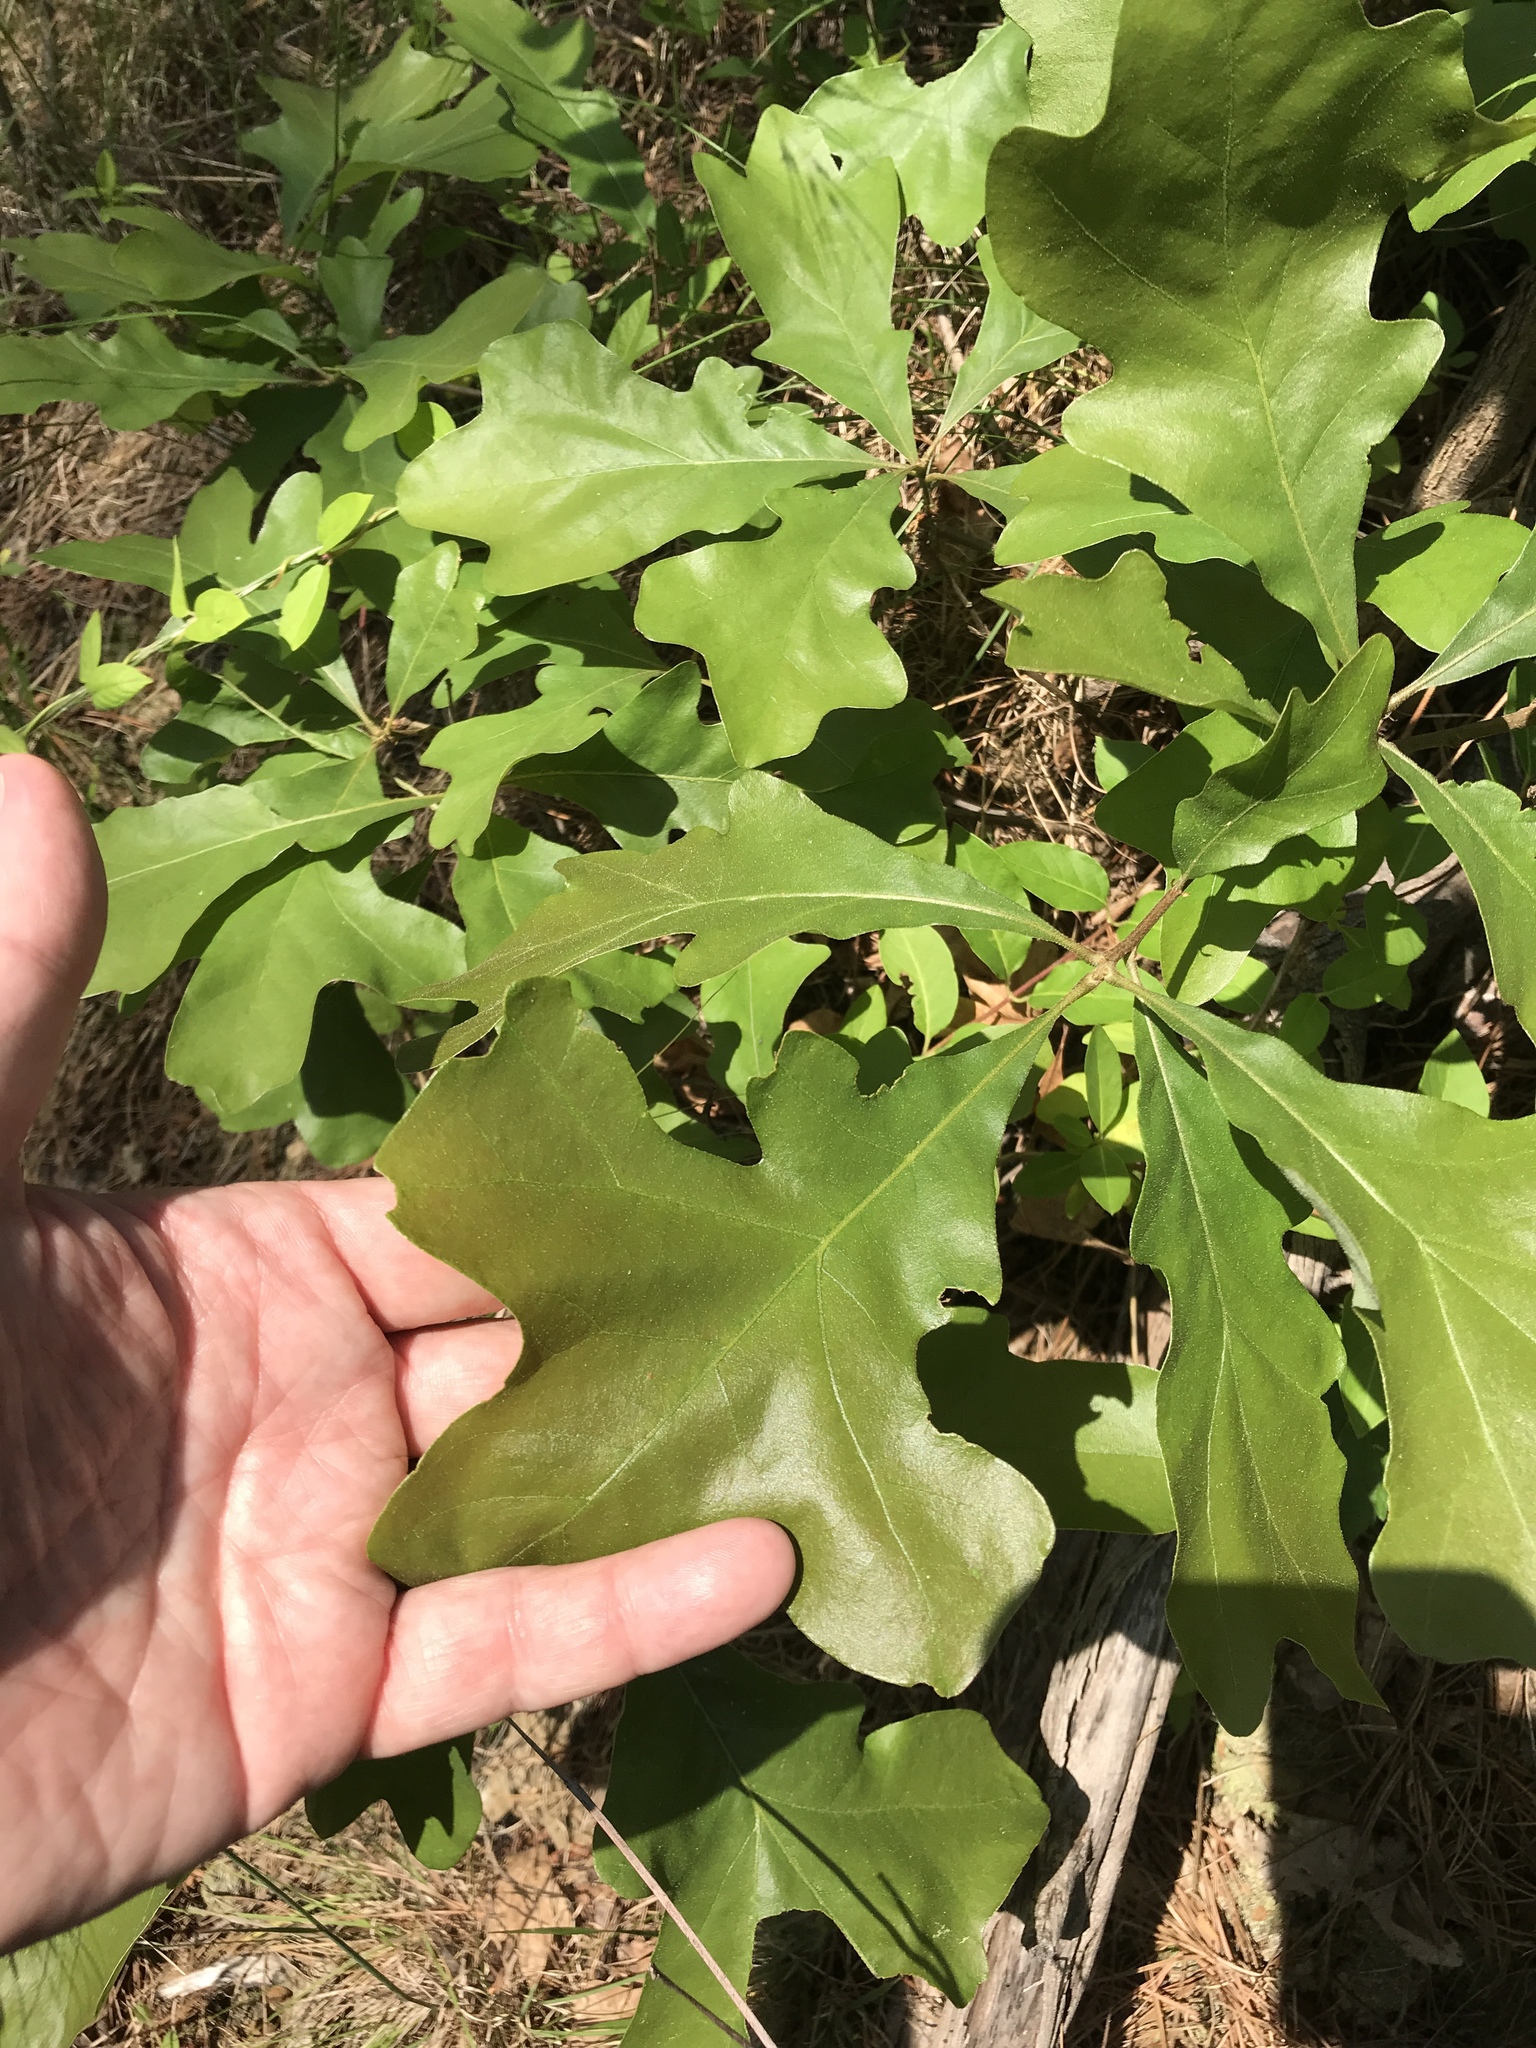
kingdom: Plantae
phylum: Tracheophyta
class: Magnoliopsida
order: Fagales
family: Fagaceae
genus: Quercus
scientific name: Quercus stellata
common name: Post oak
